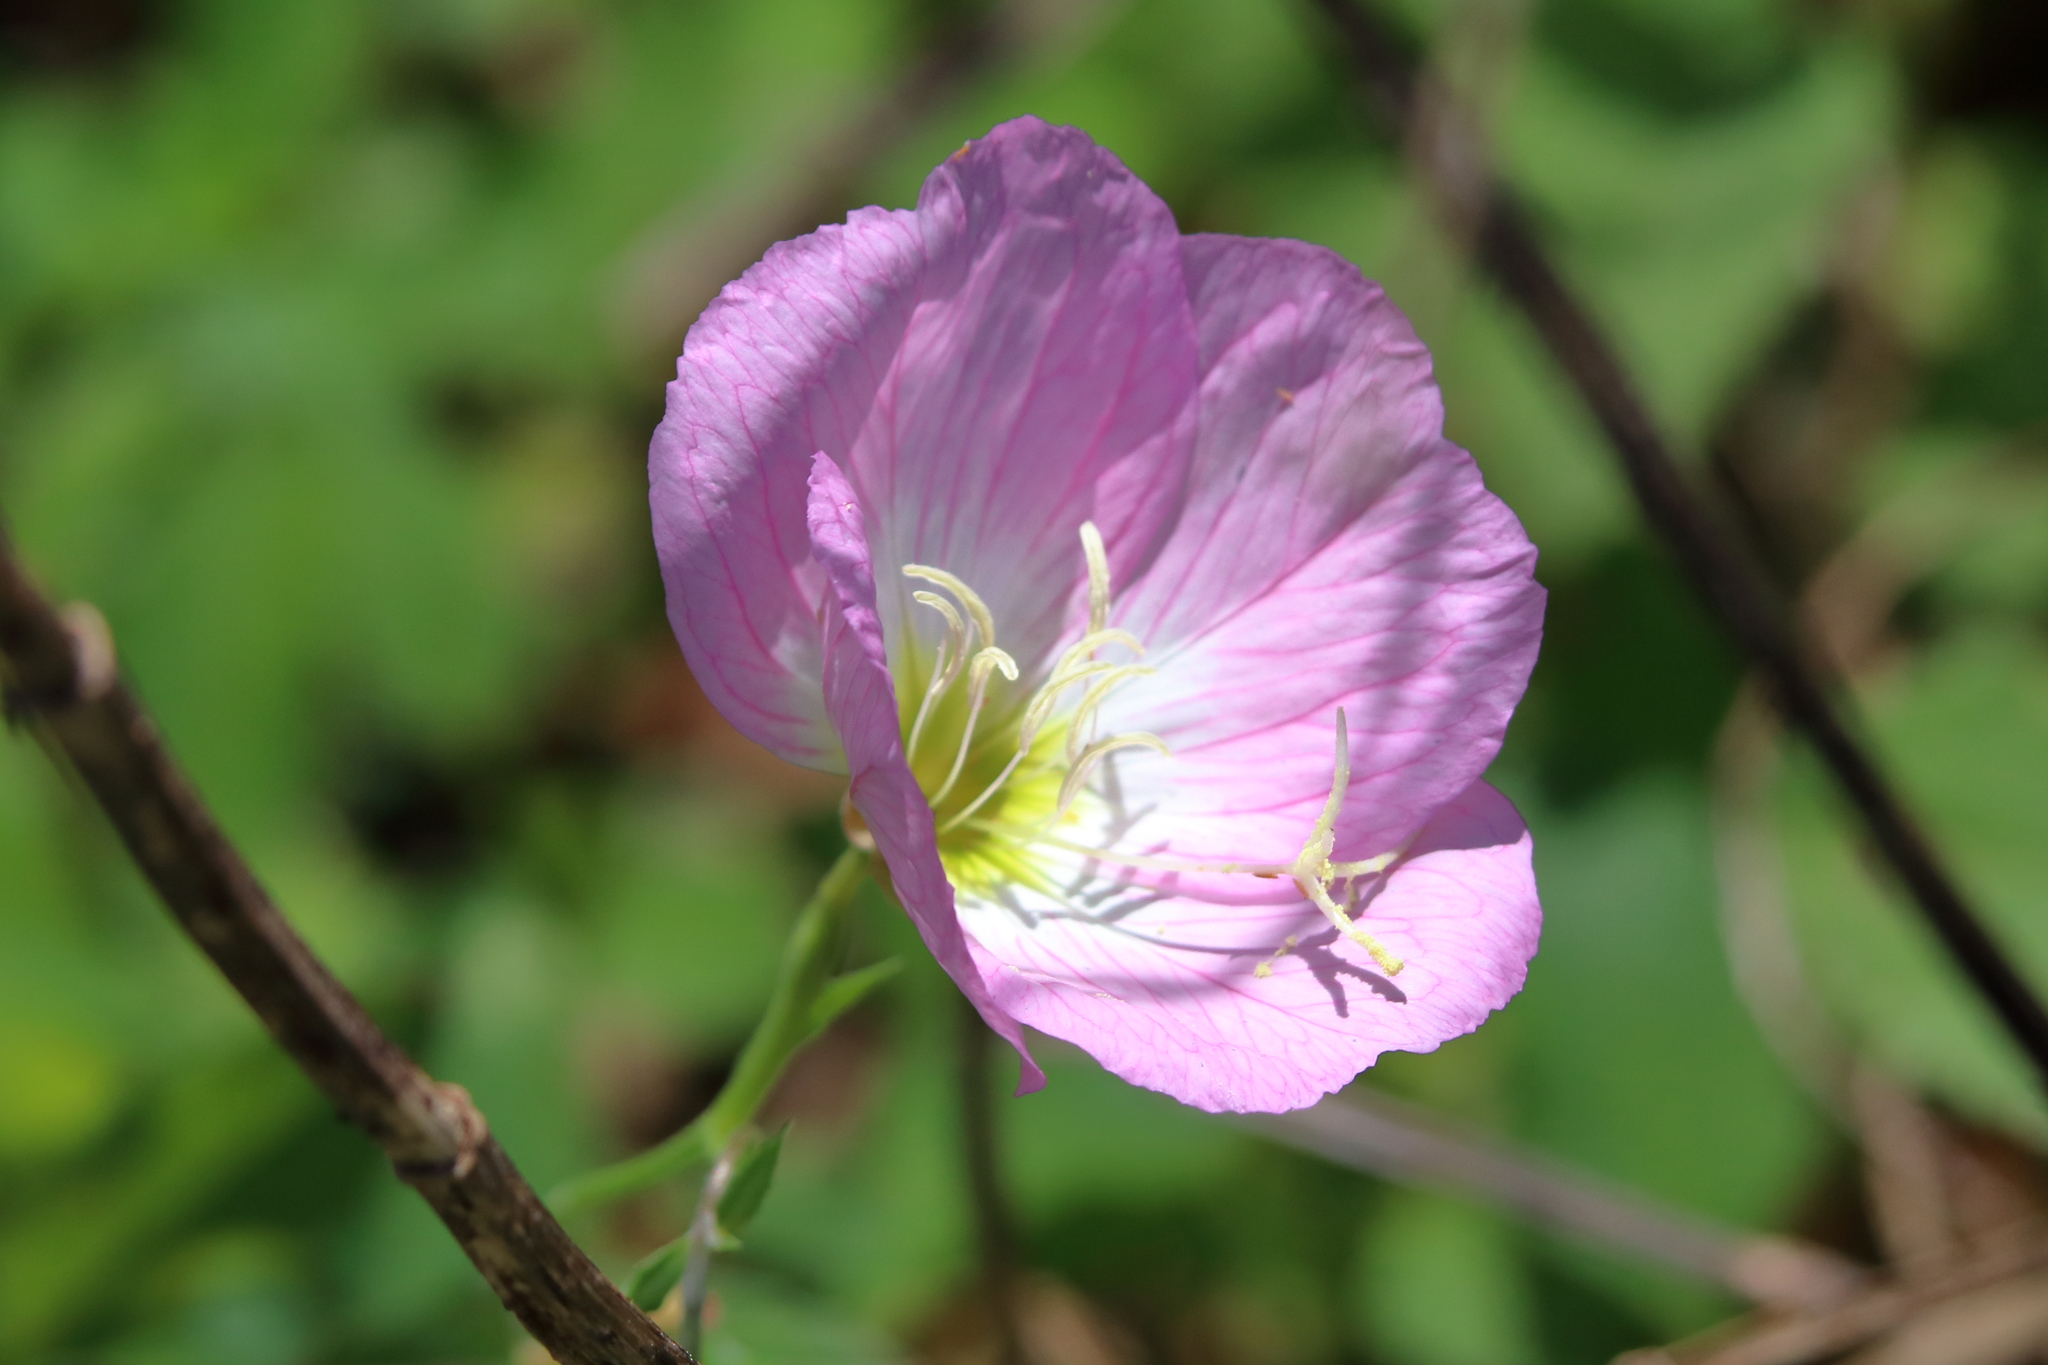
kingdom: Plantae
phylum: Tracheophyta
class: Magnoliopsida
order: Myrtales
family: Onagraceae
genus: Oenothera
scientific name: Oenothera speciosa
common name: White evening-primrose
